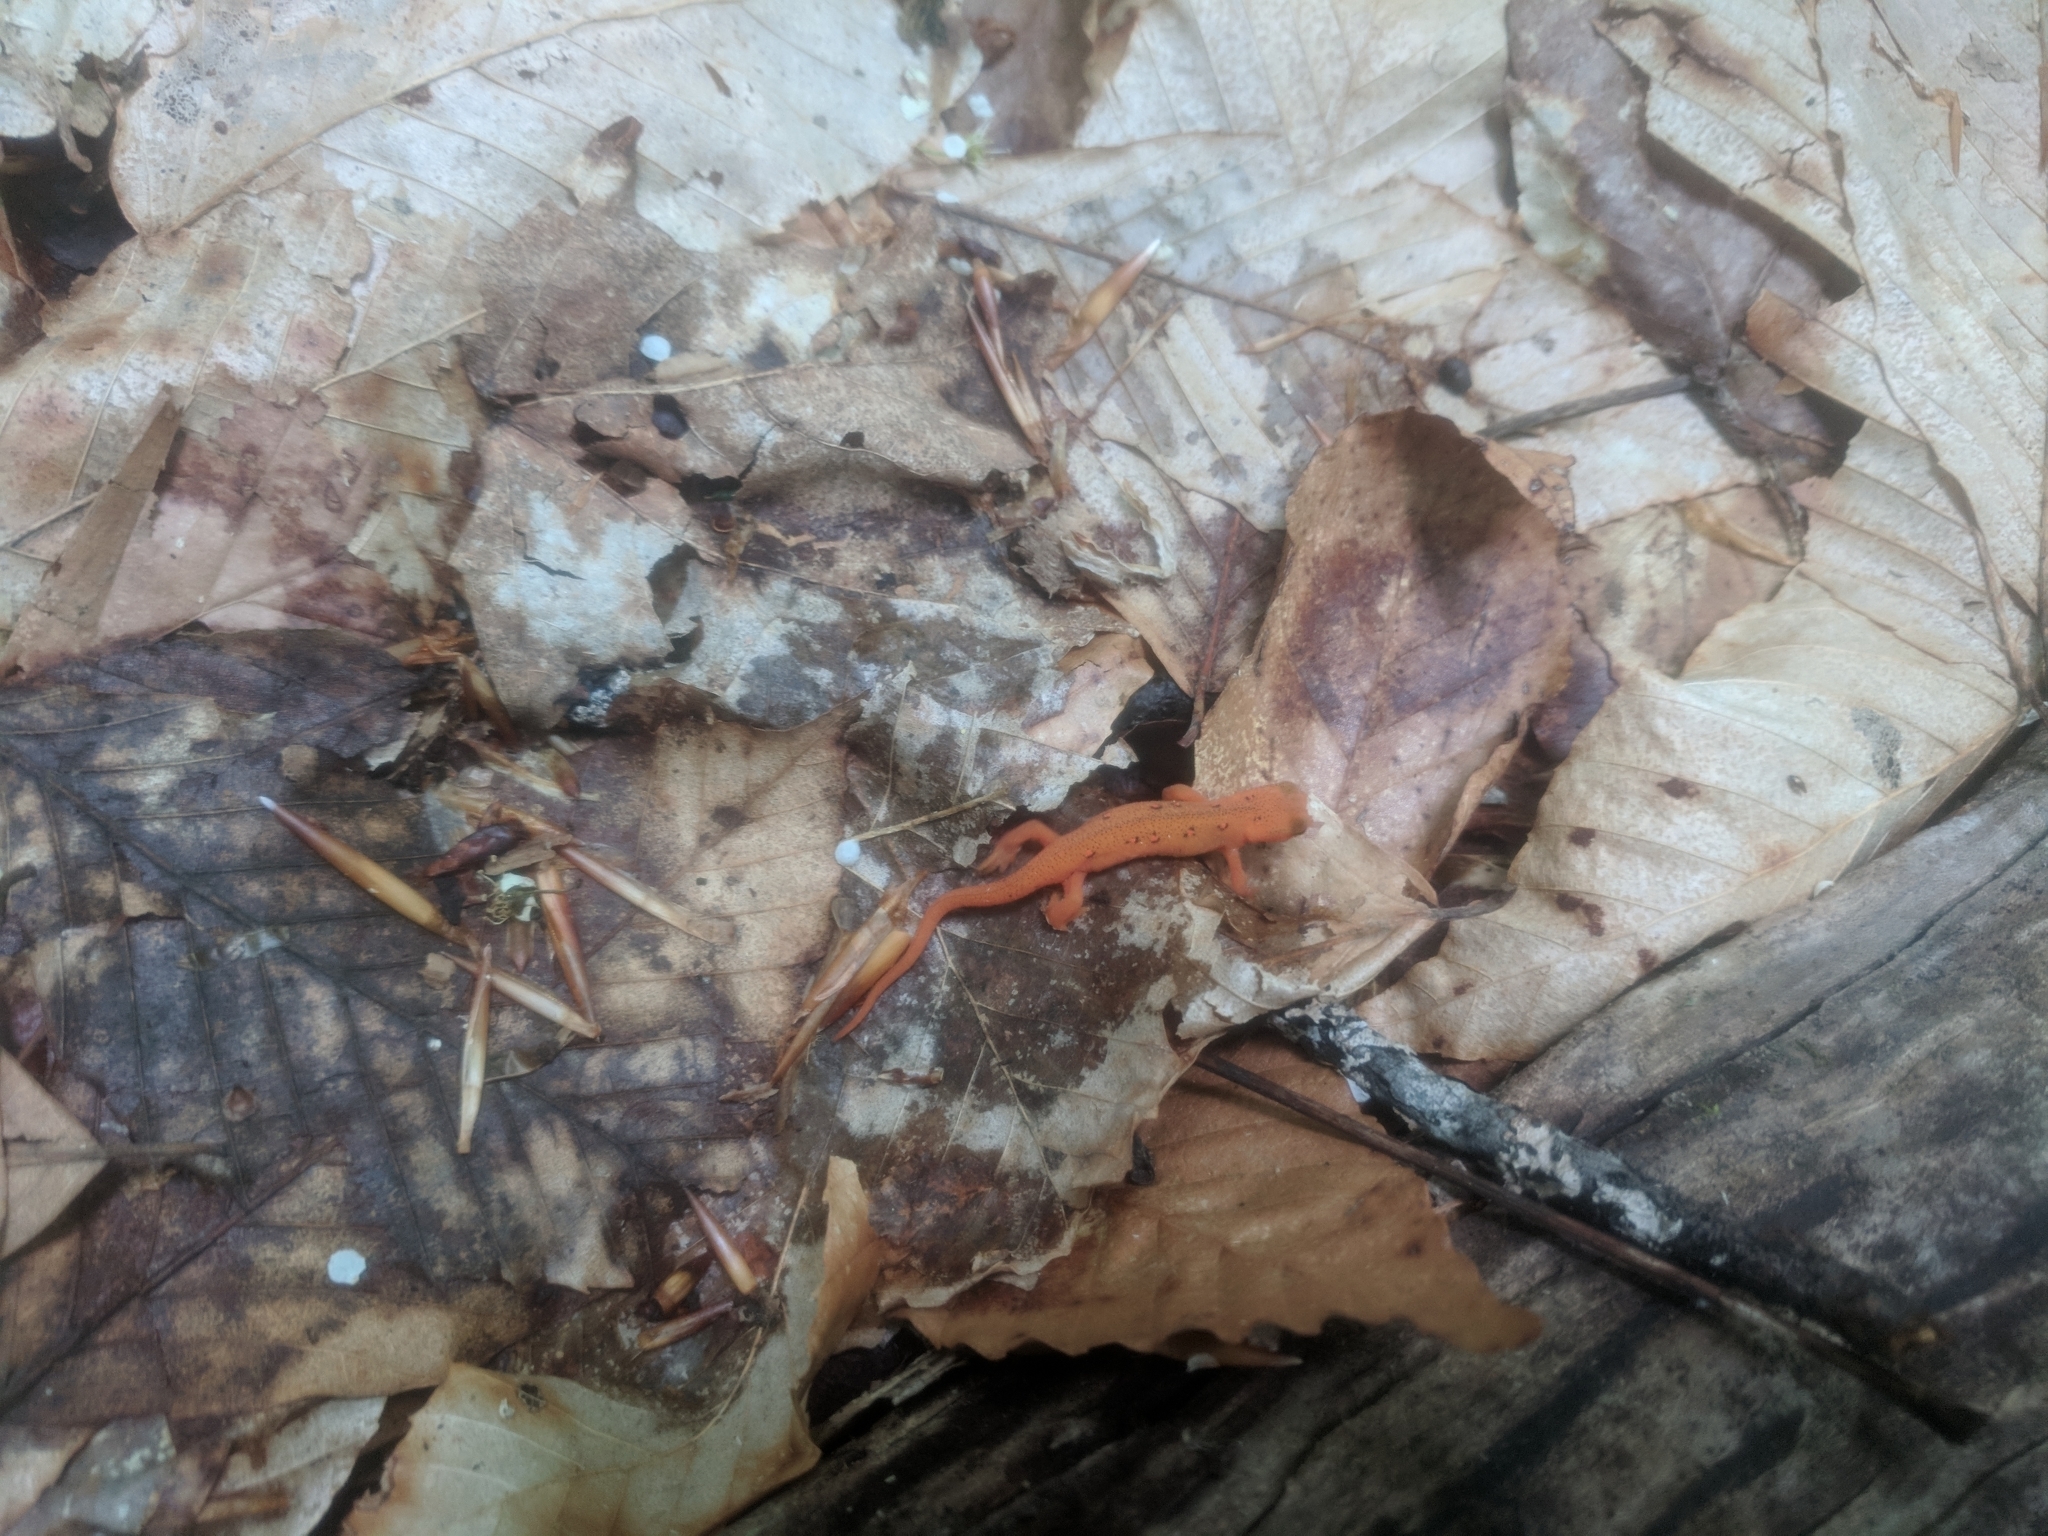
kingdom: Animalia
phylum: Chordata
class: Amphibia
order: Caudata
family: Salamandridae
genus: Notophthalmus
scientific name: Notophthalmus viridescens
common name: Eastern newt
